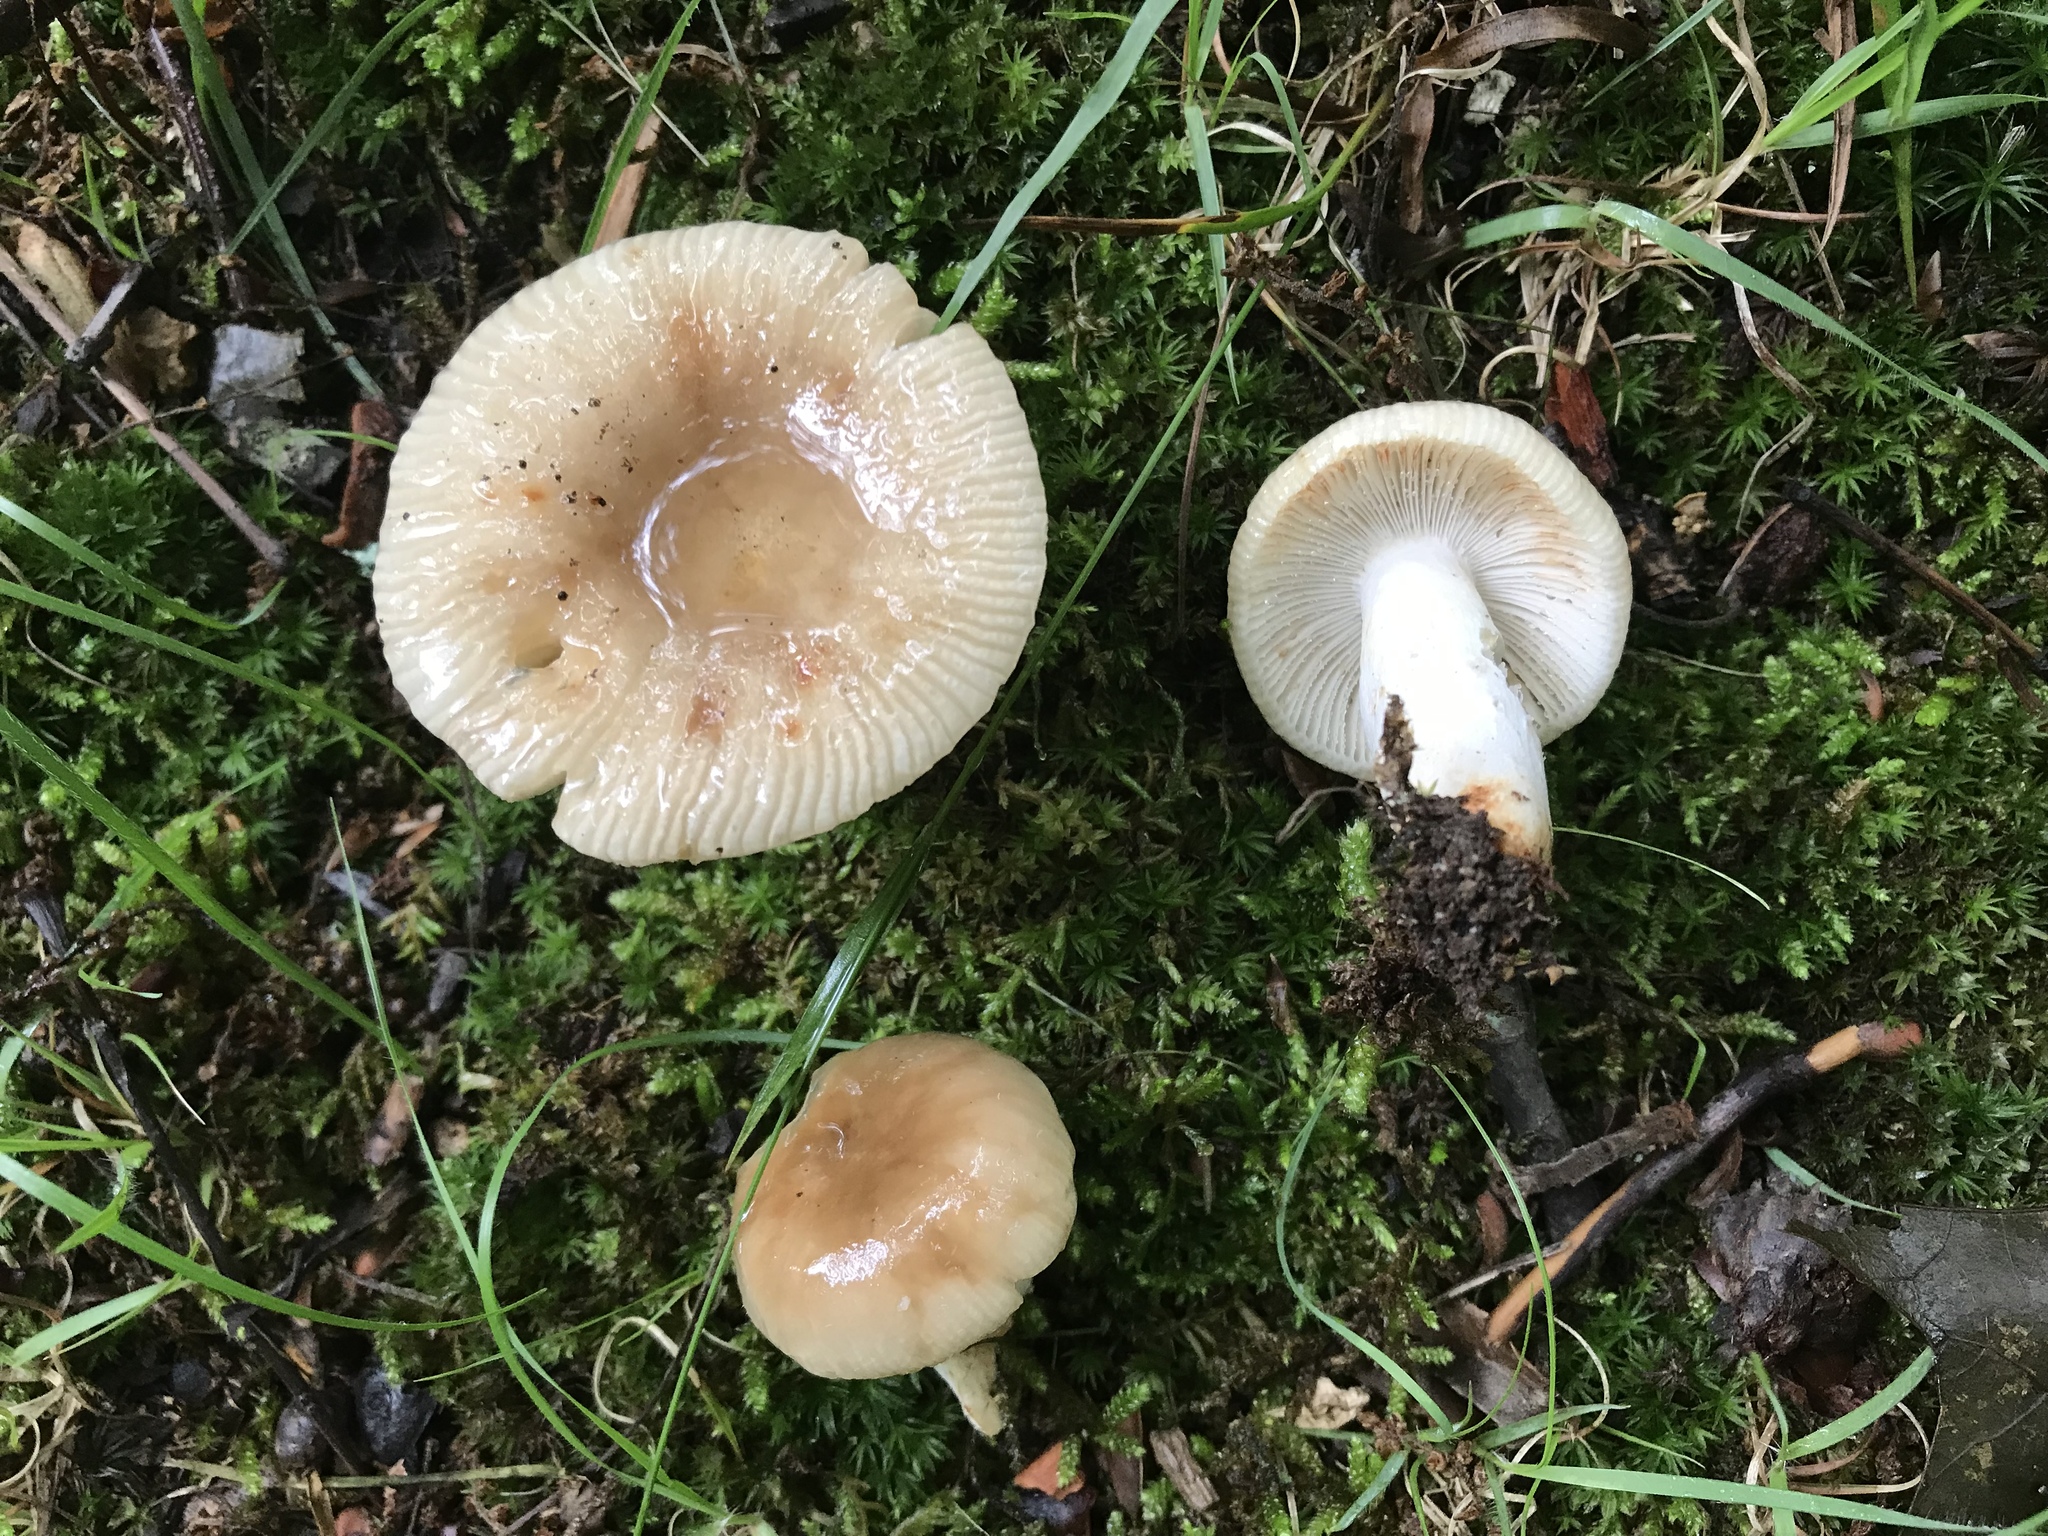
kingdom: Fungi
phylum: Basidiomycota
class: Agaricomycetes
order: Russulales
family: Russulaceae
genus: Russula
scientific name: Russula pectinatoides
